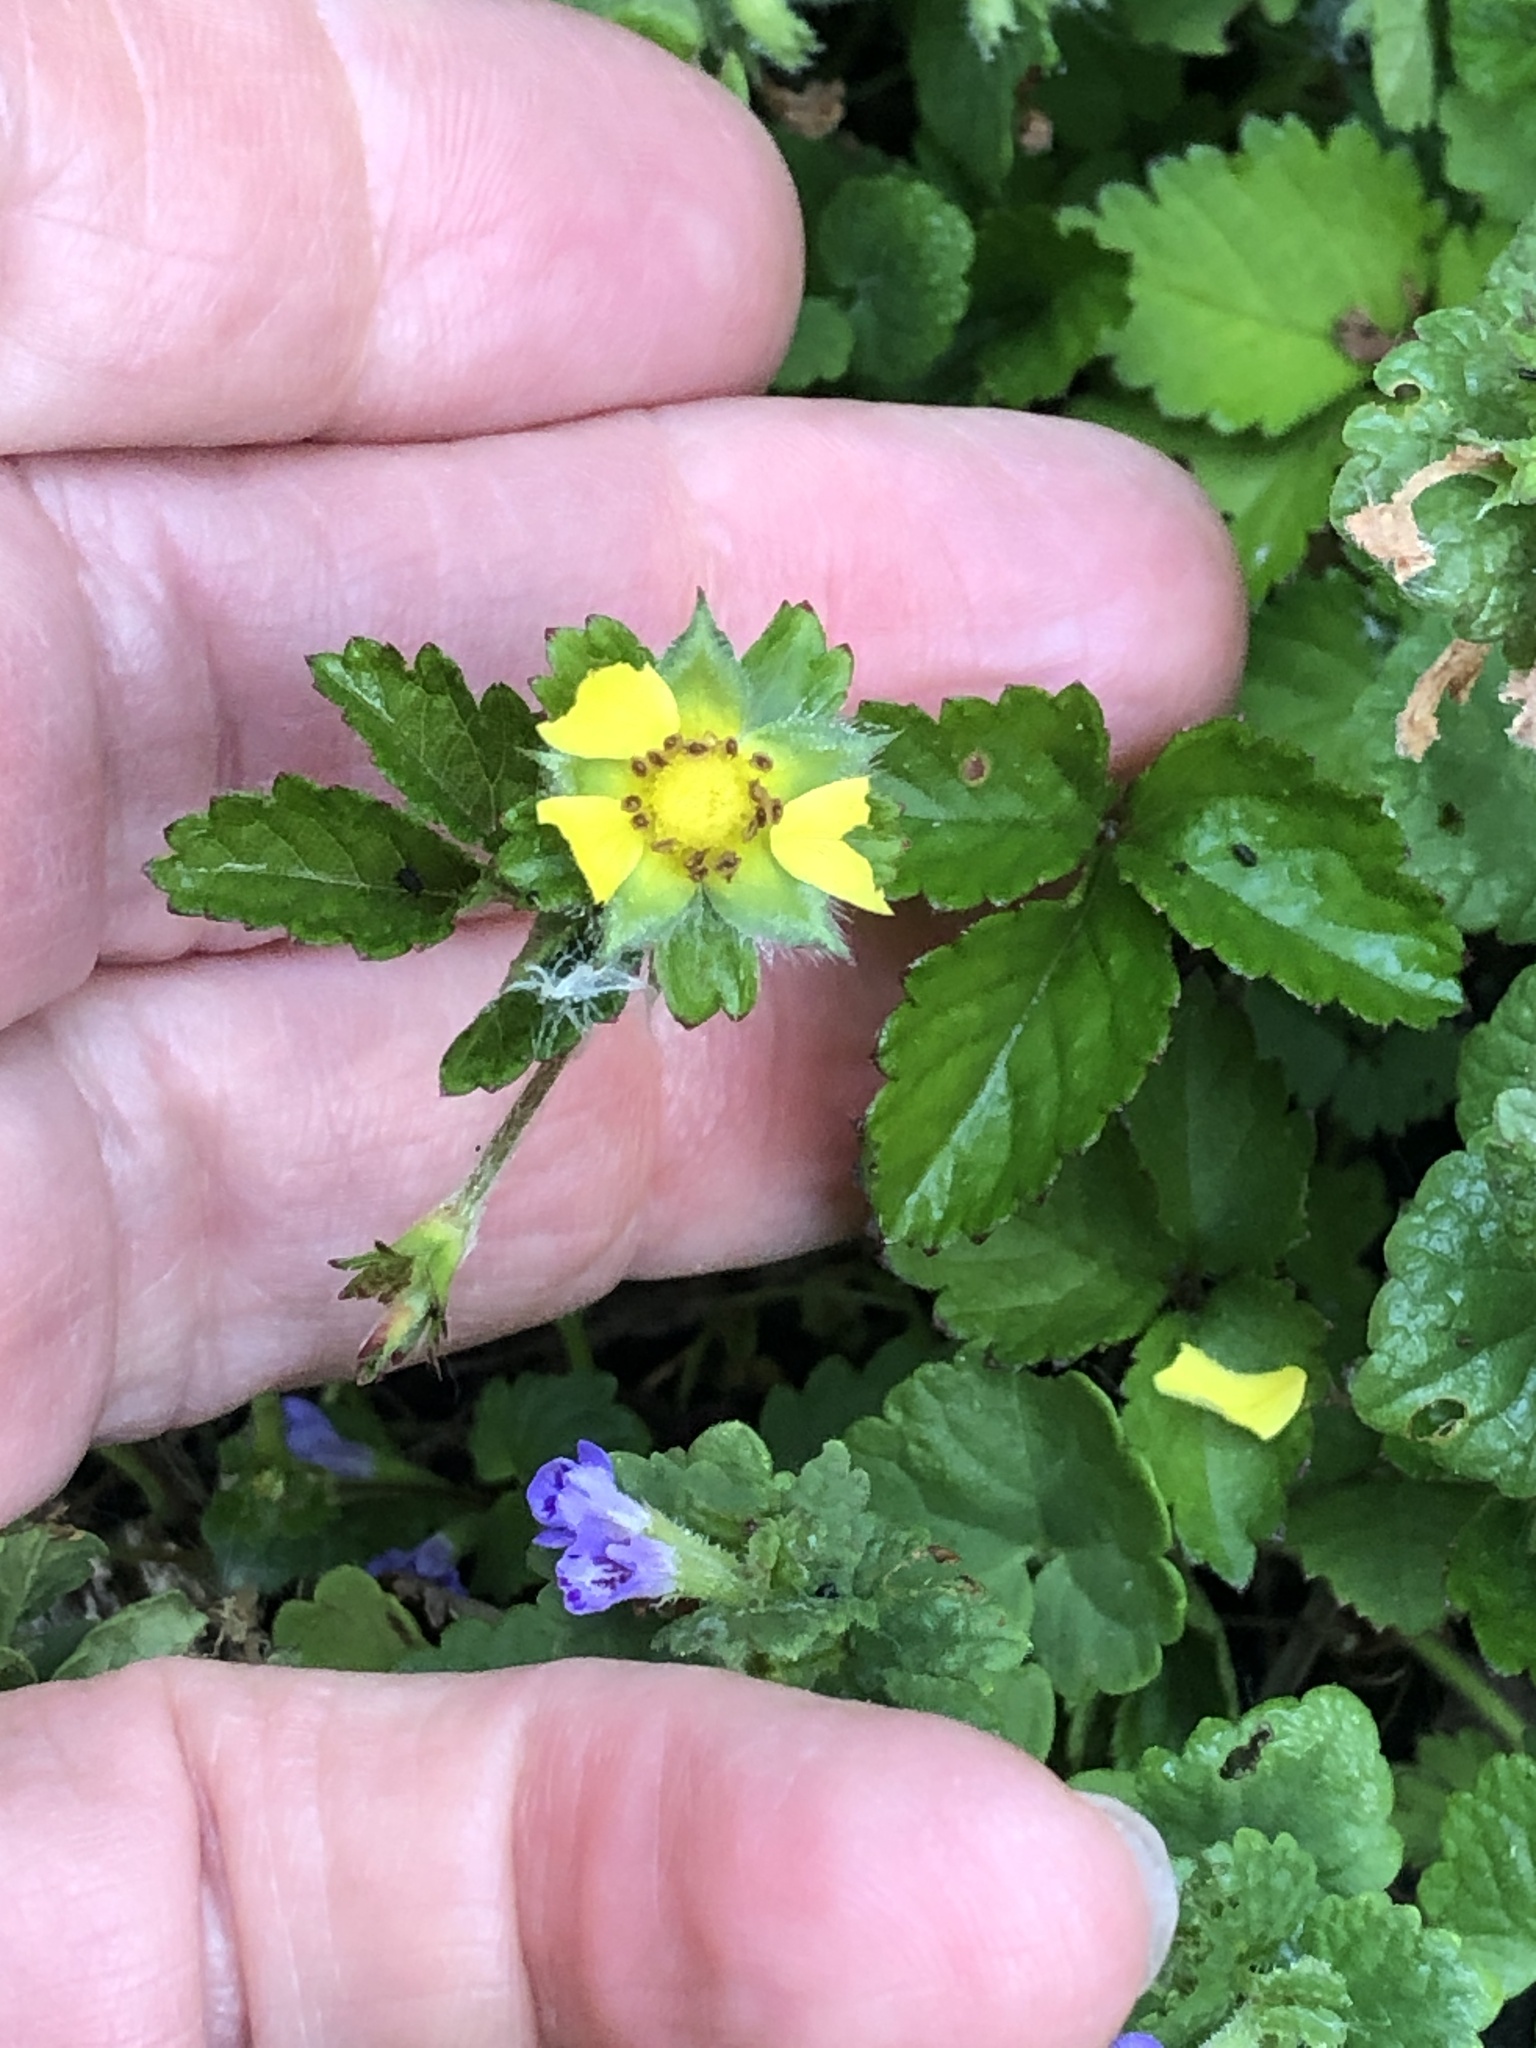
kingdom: Plantae
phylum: Tracheophyta
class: Magnoliopsida
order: Rosales
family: Rosaceae
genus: Potentilla
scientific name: Potentilla indica
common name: Yellow-flowered strawberry
